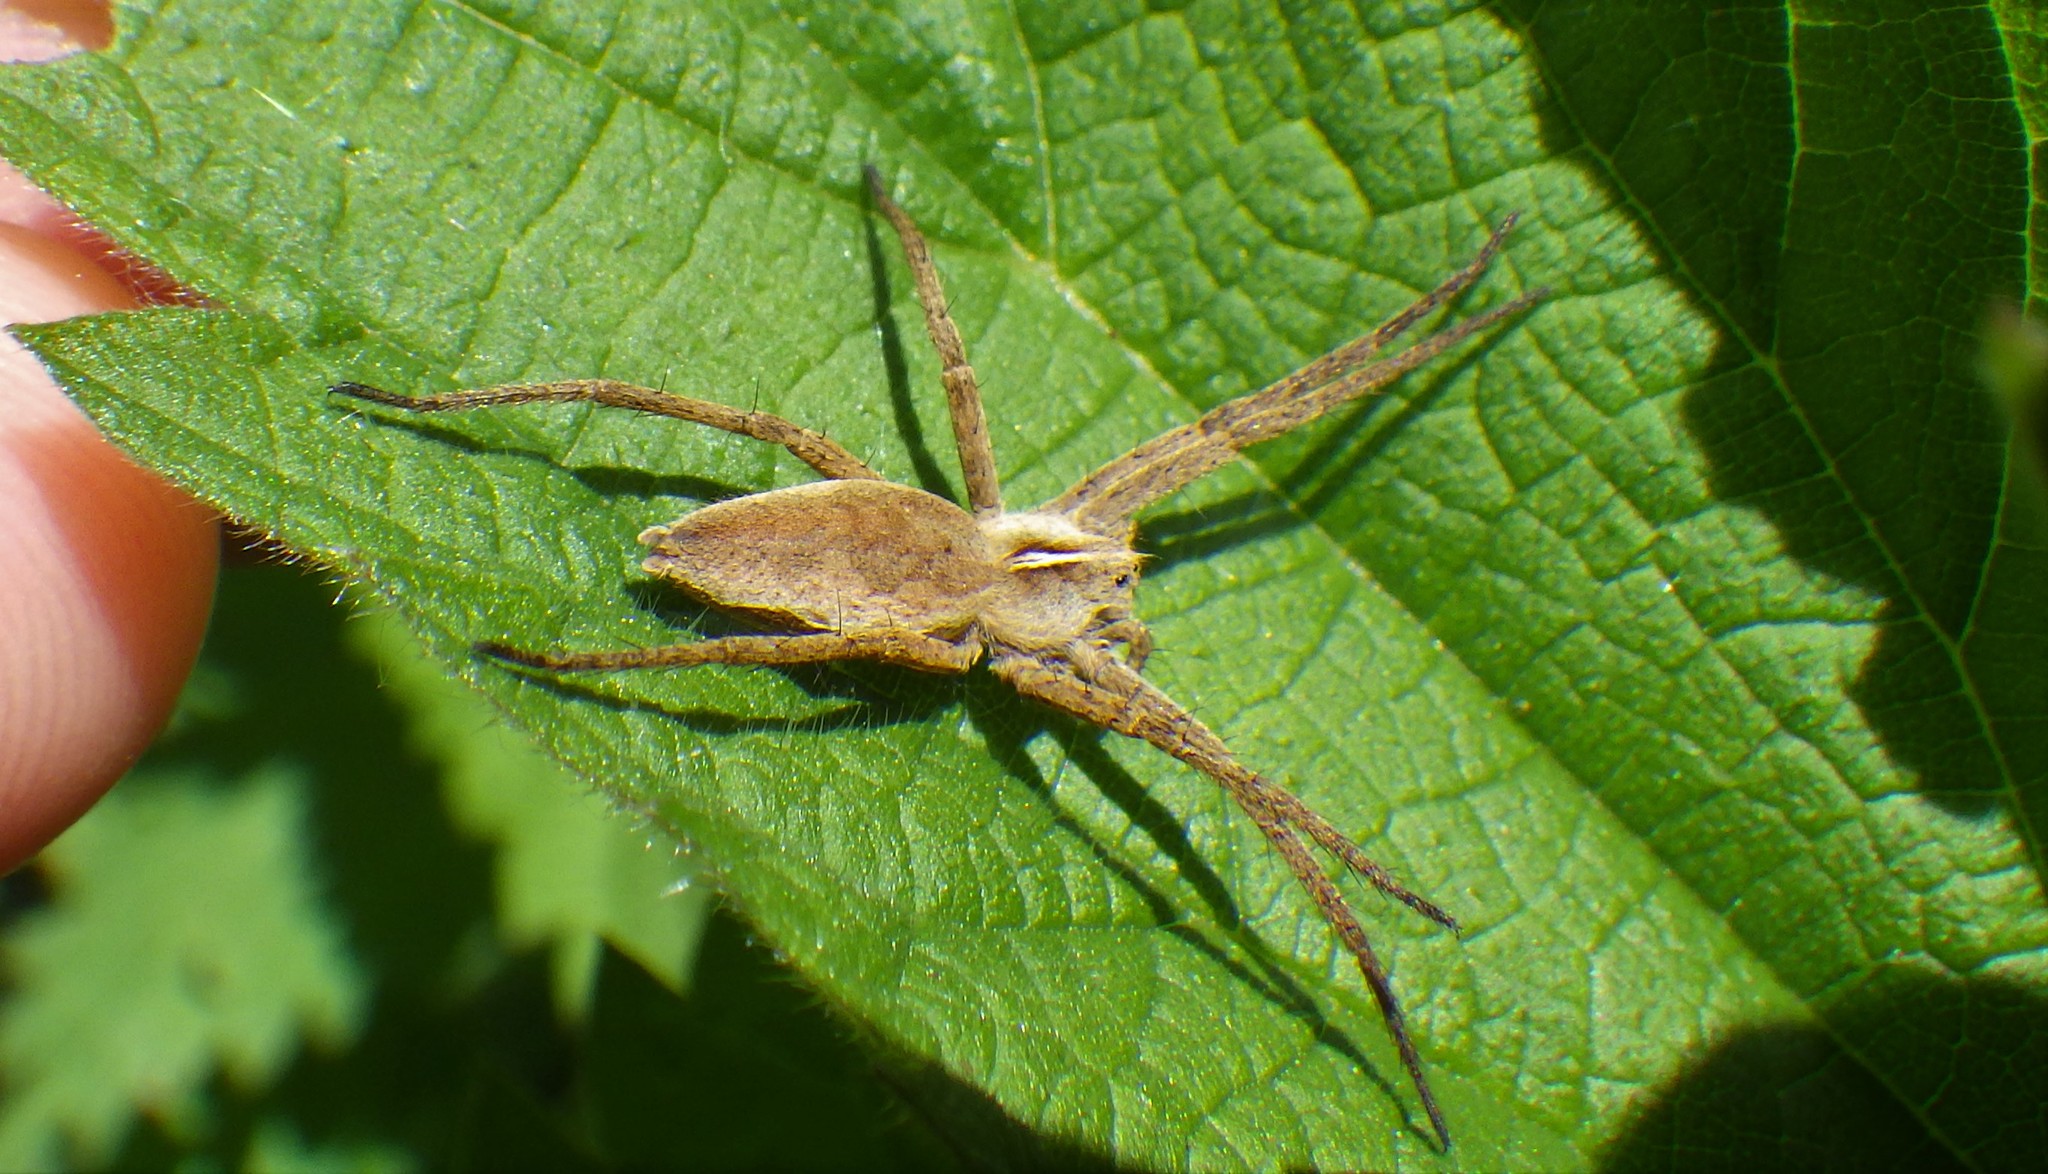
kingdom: Animalia
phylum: Arthropoda
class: Arachnida
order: Araneae
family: Pisauridae
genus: Pisaura
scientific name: Pisaura mirabilis
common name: Tent spider
